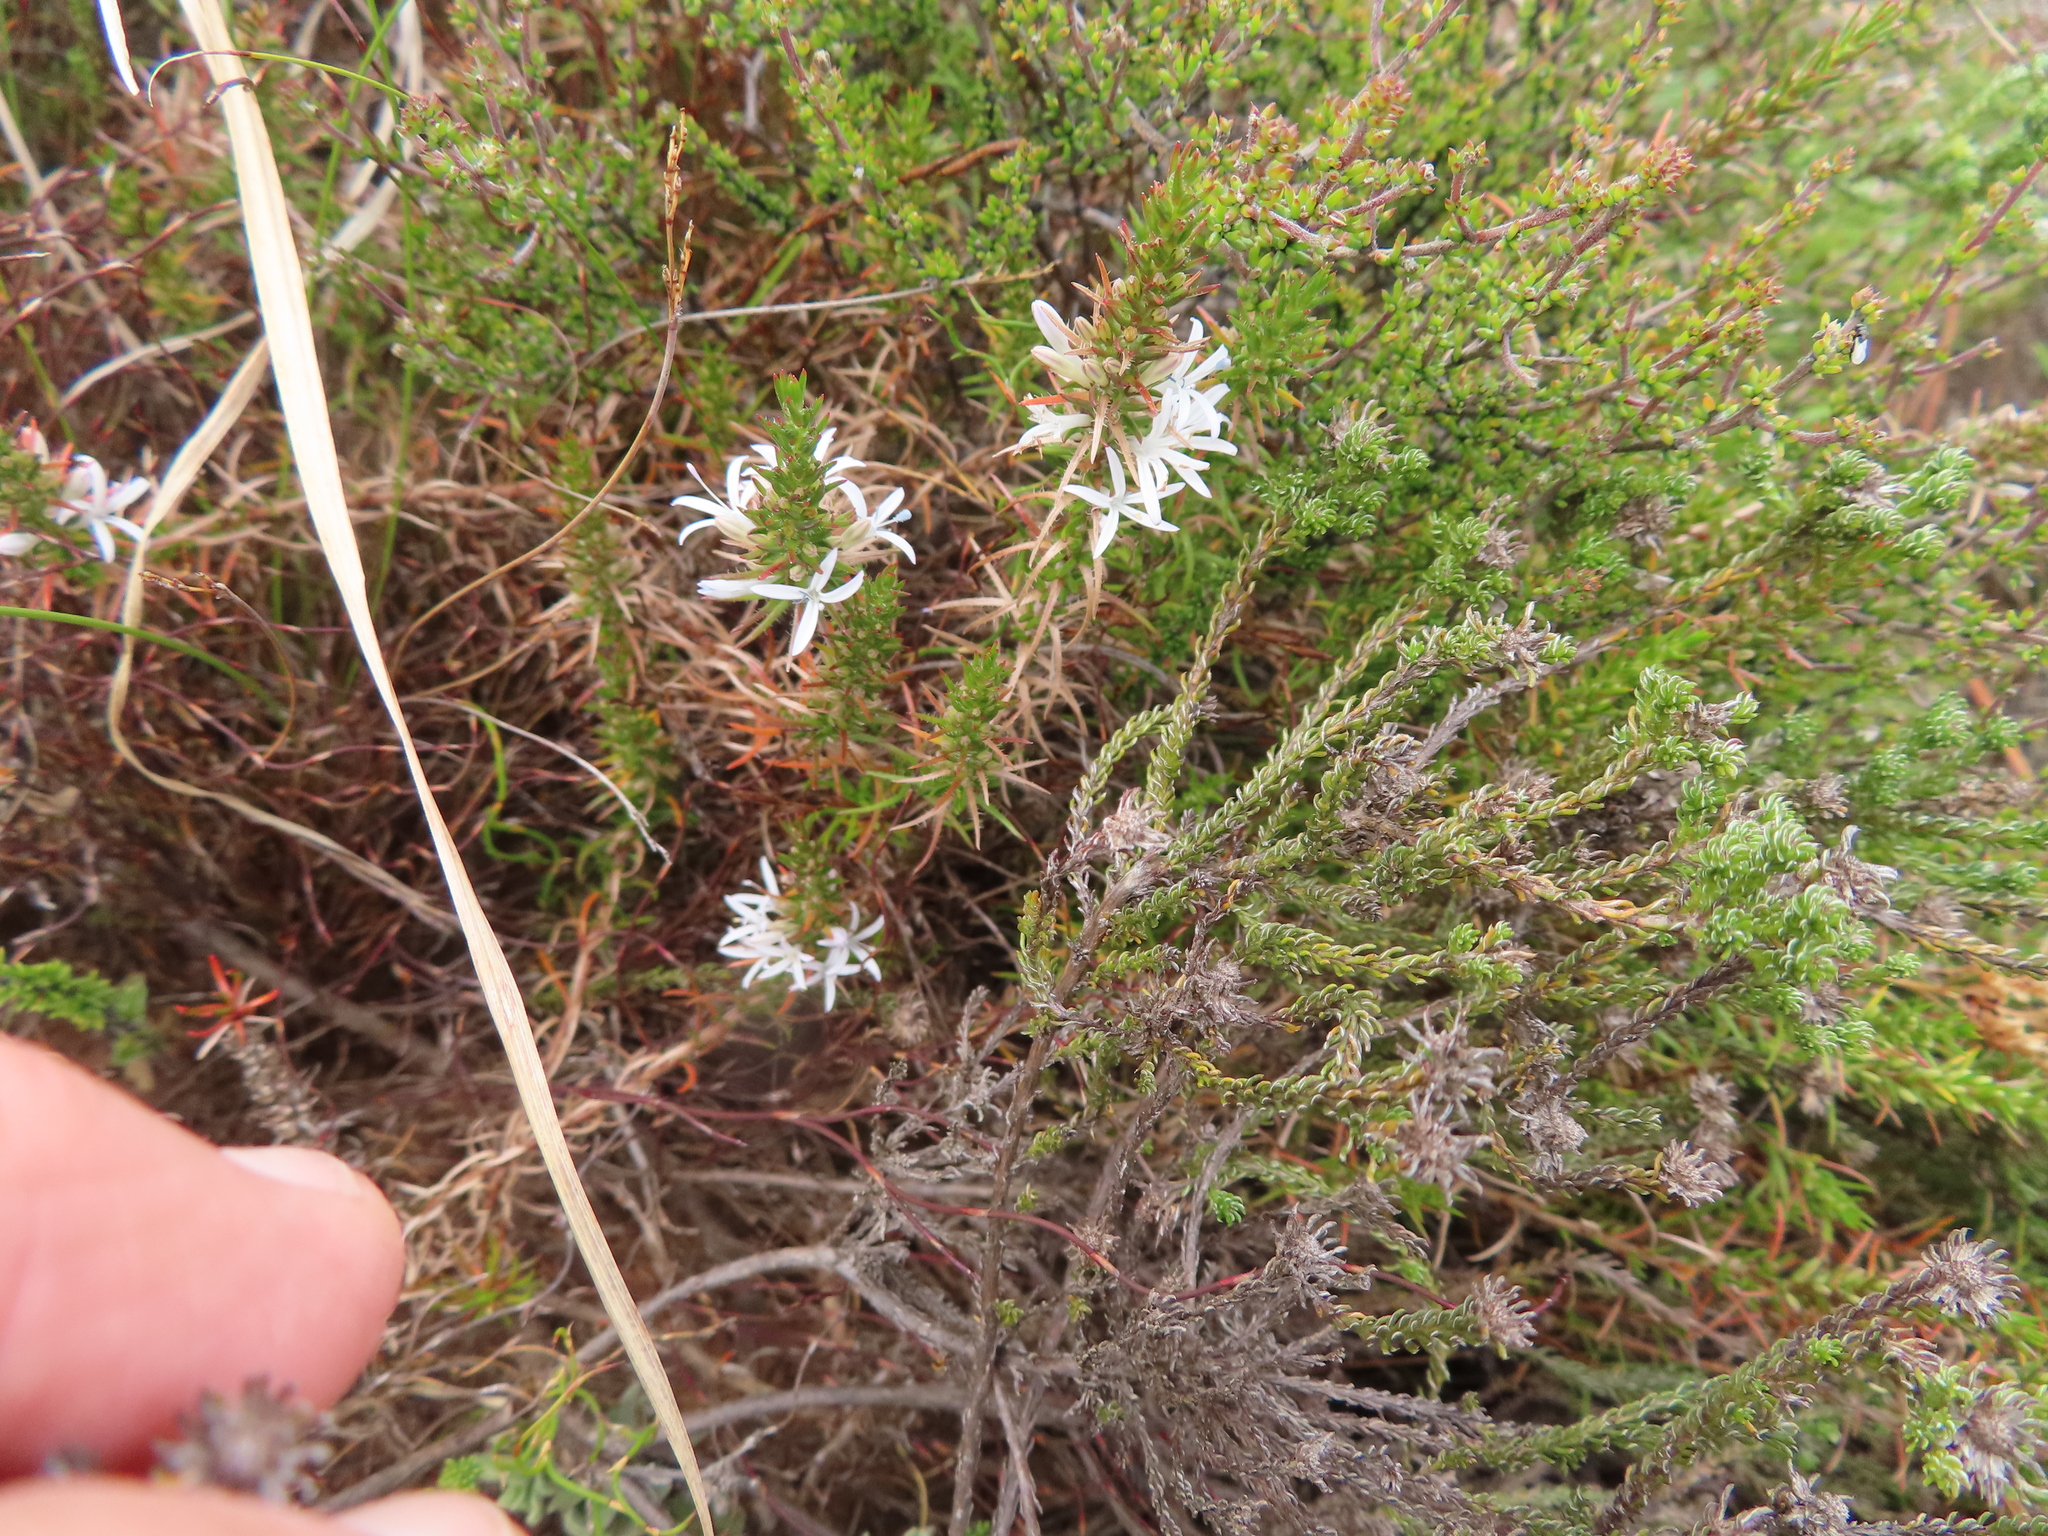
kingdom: Plantae
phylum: Tracheophyta
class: Magnoliopsida
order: Asterales
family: Campanulaceae
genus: Merciera
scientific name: Merciera leptoloba
